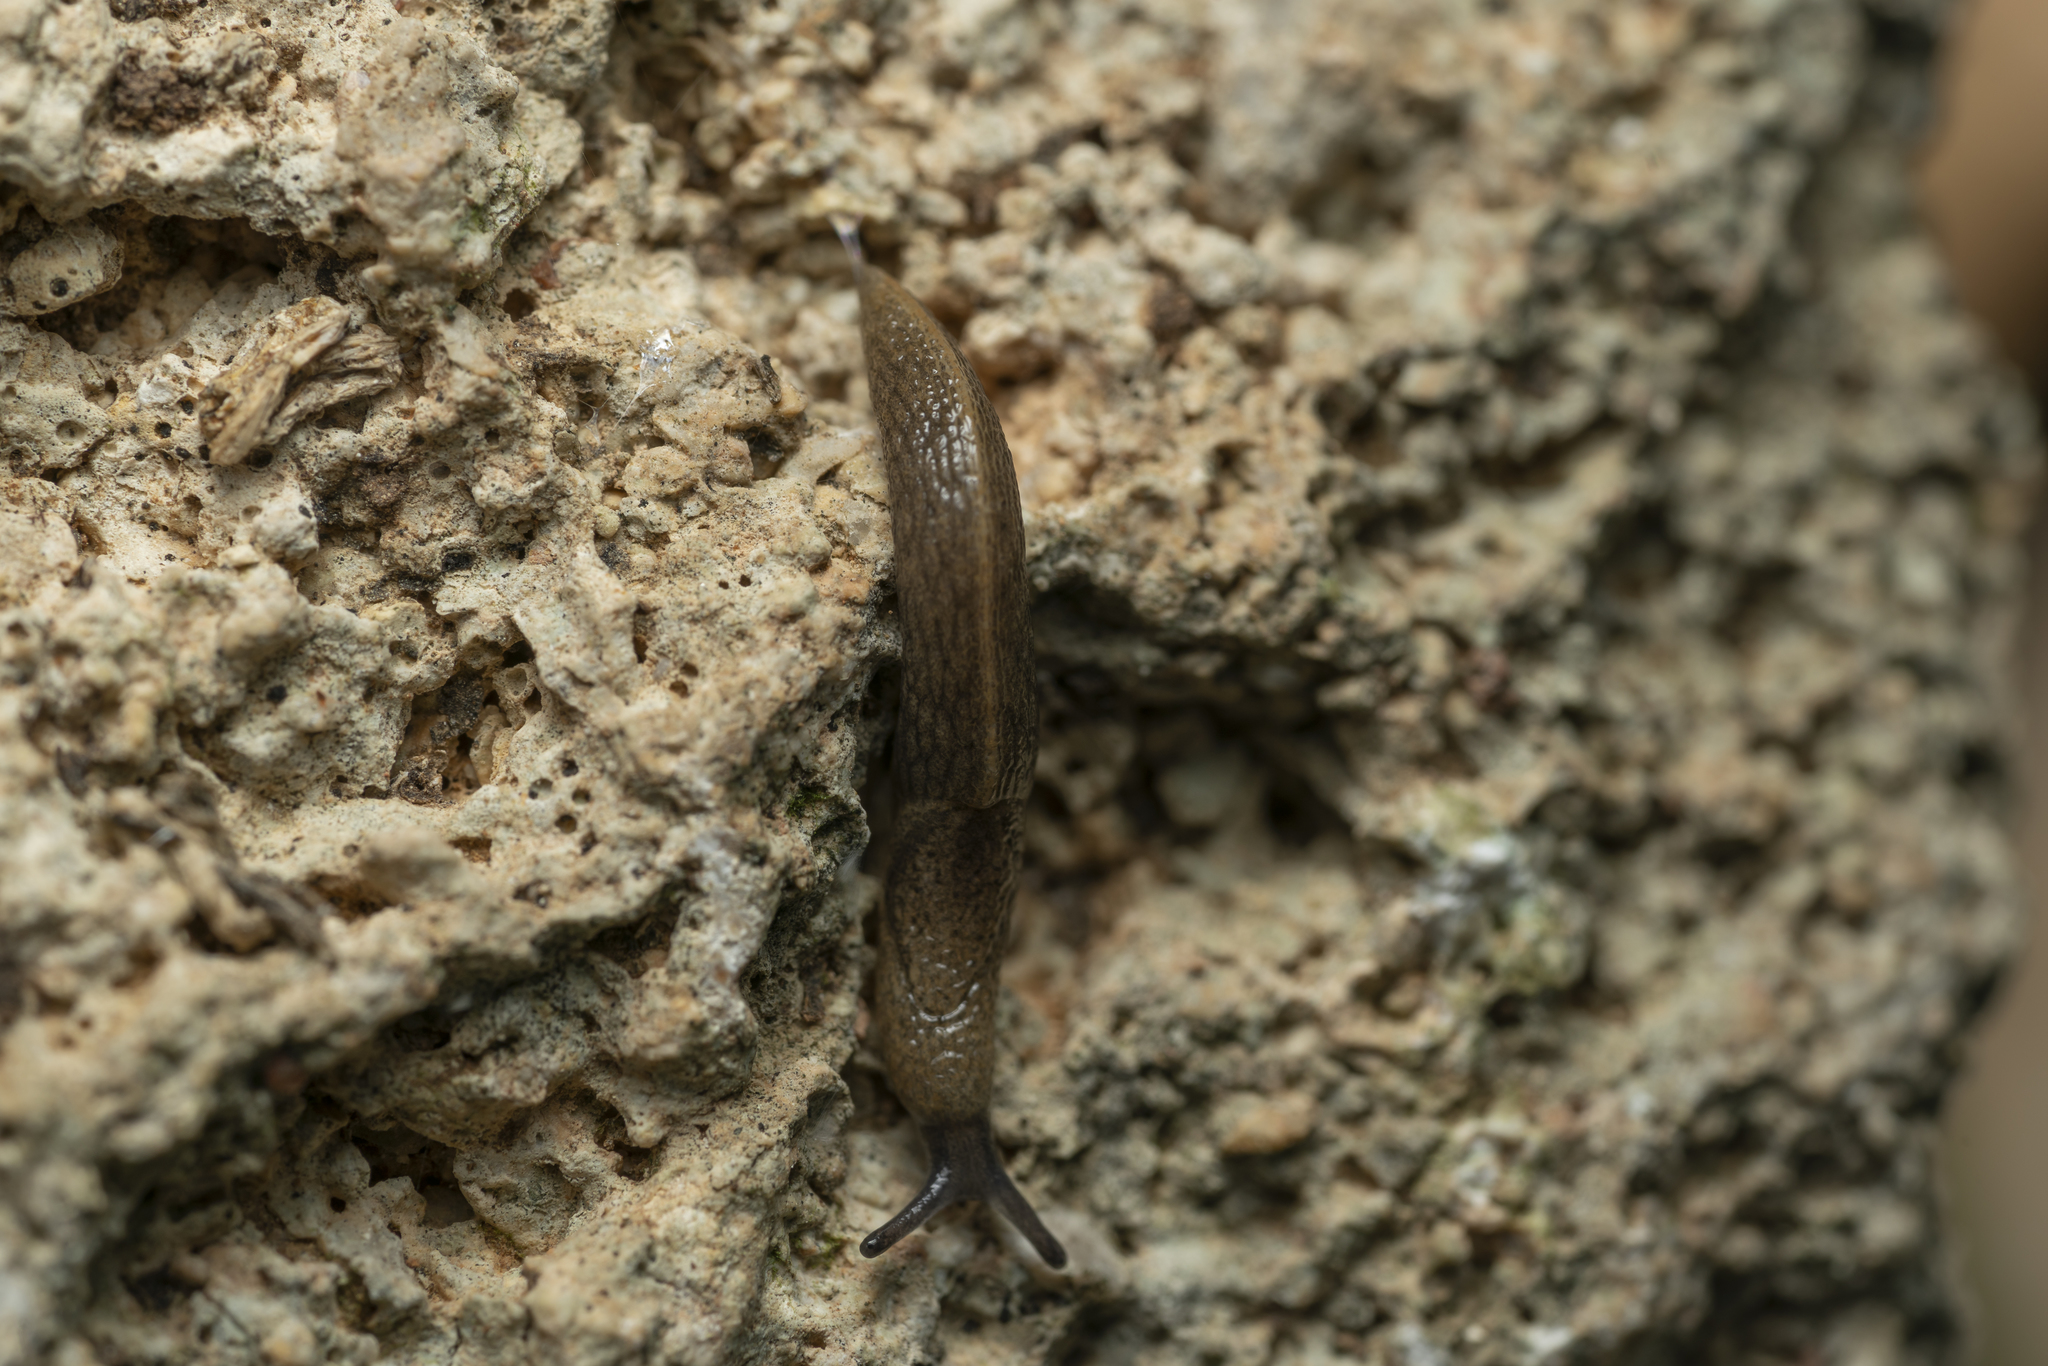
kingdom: Animalia
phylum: Mollusca
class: Gastropoda
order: Stylommatophora
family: Milacidae
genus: Milax
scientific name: Milax altenai
